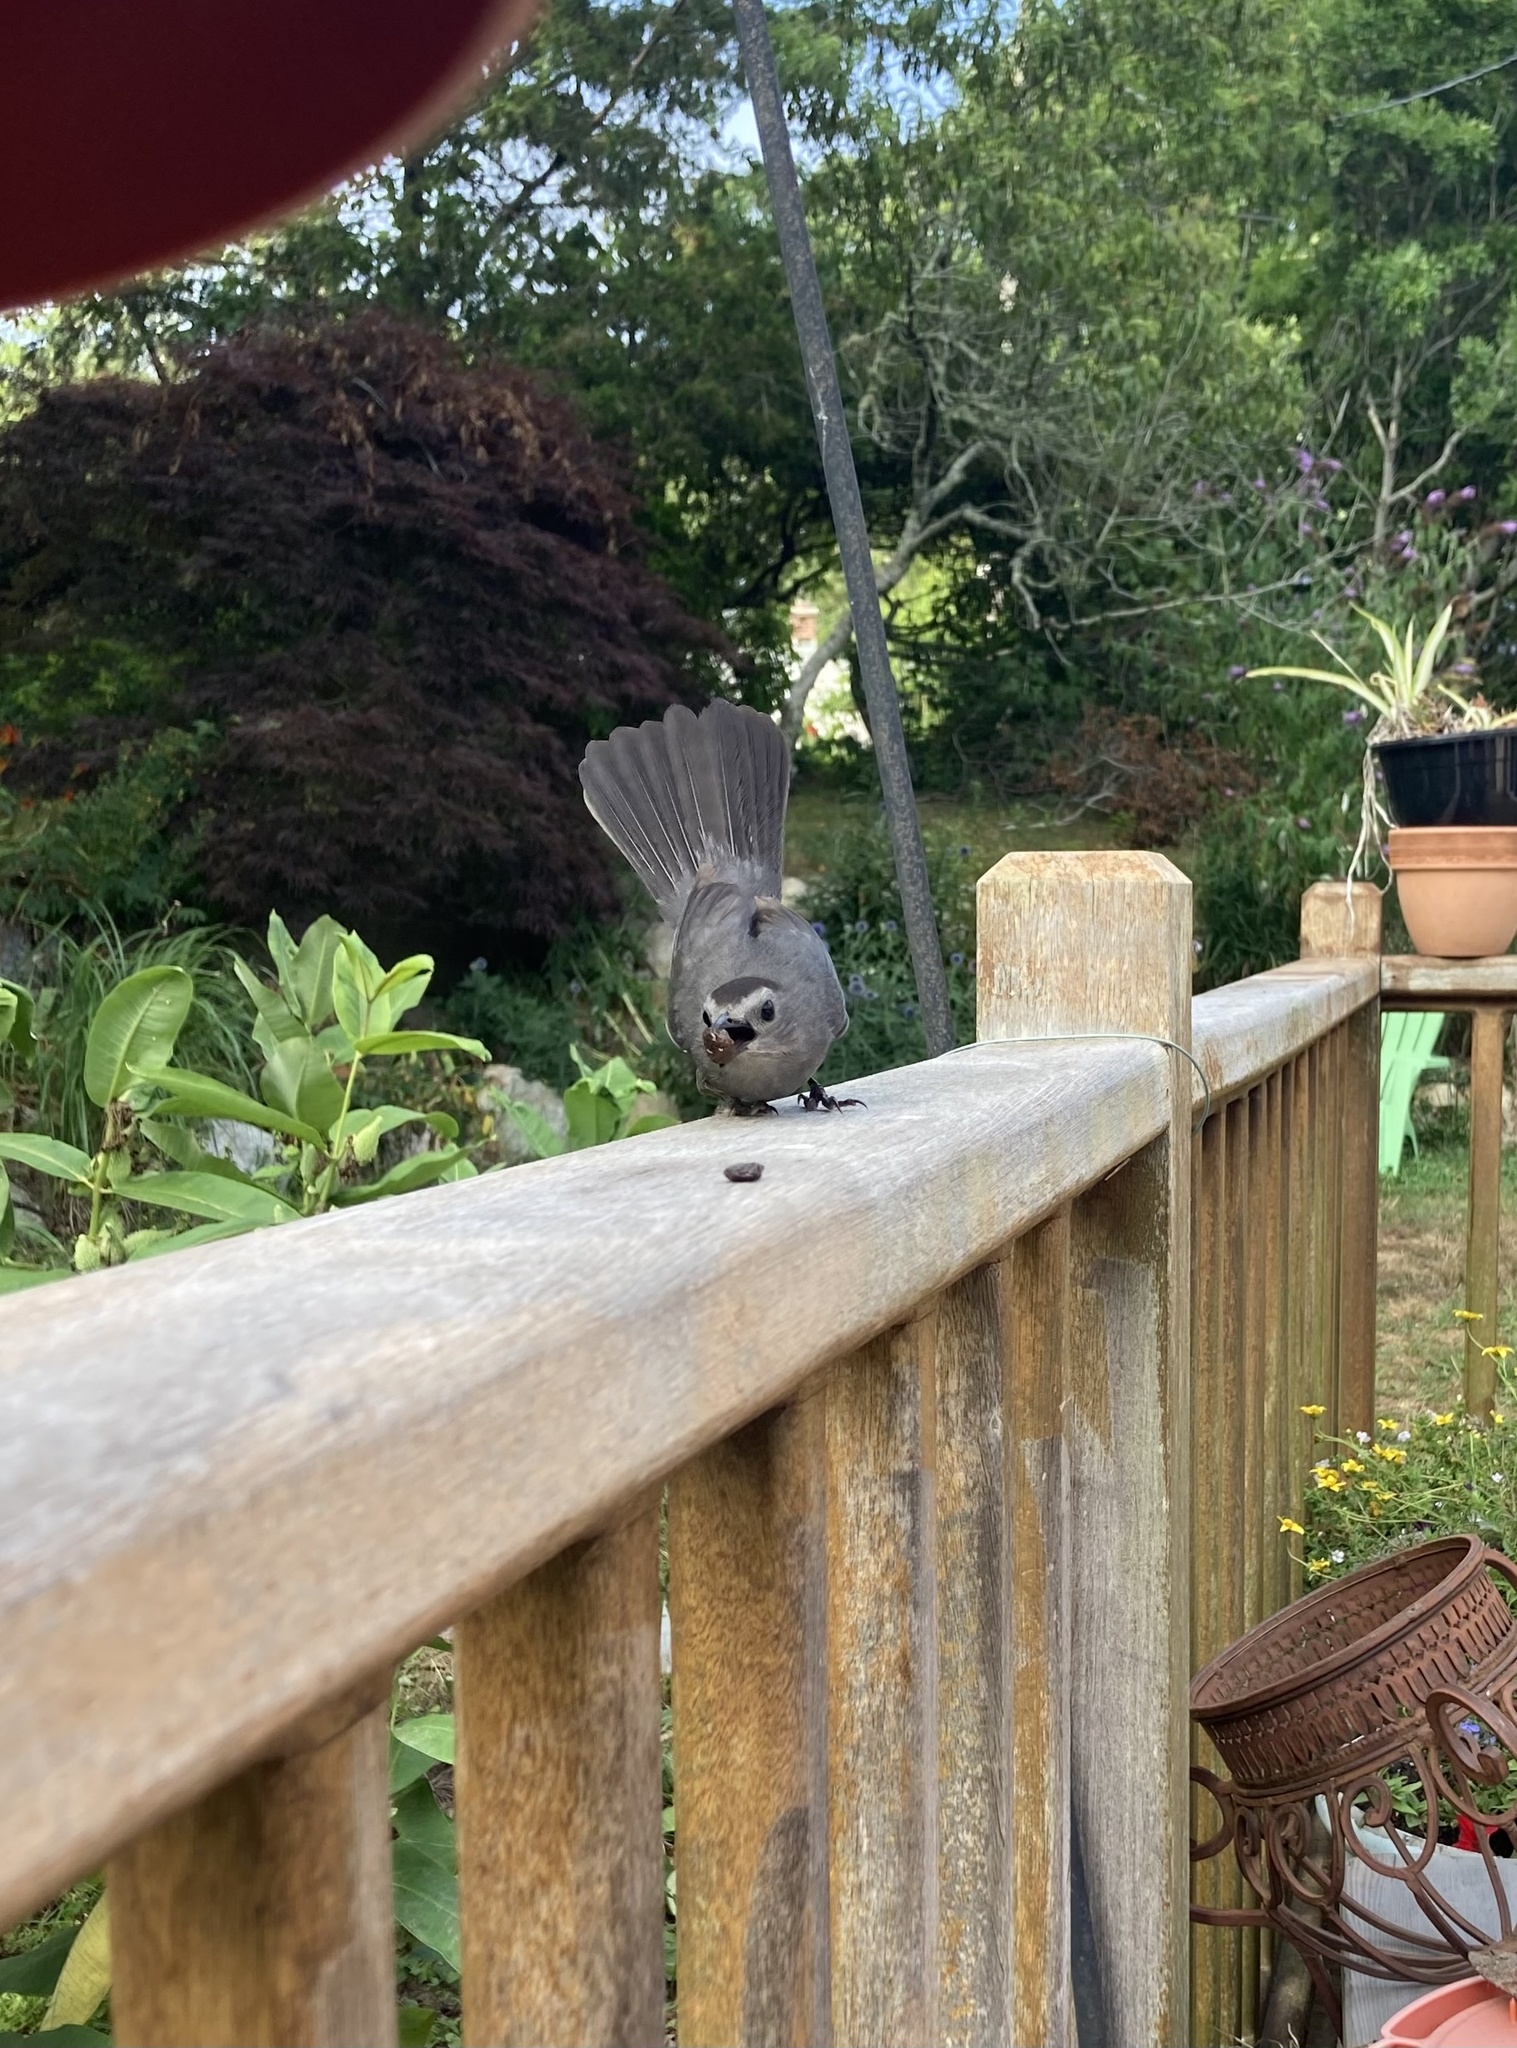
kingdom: Animalia
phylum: Chordata
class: Aves
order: Passeriformes
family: Mimidae
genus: Dumetella
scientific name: Dumetella carolinensis
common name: Gray catbird
